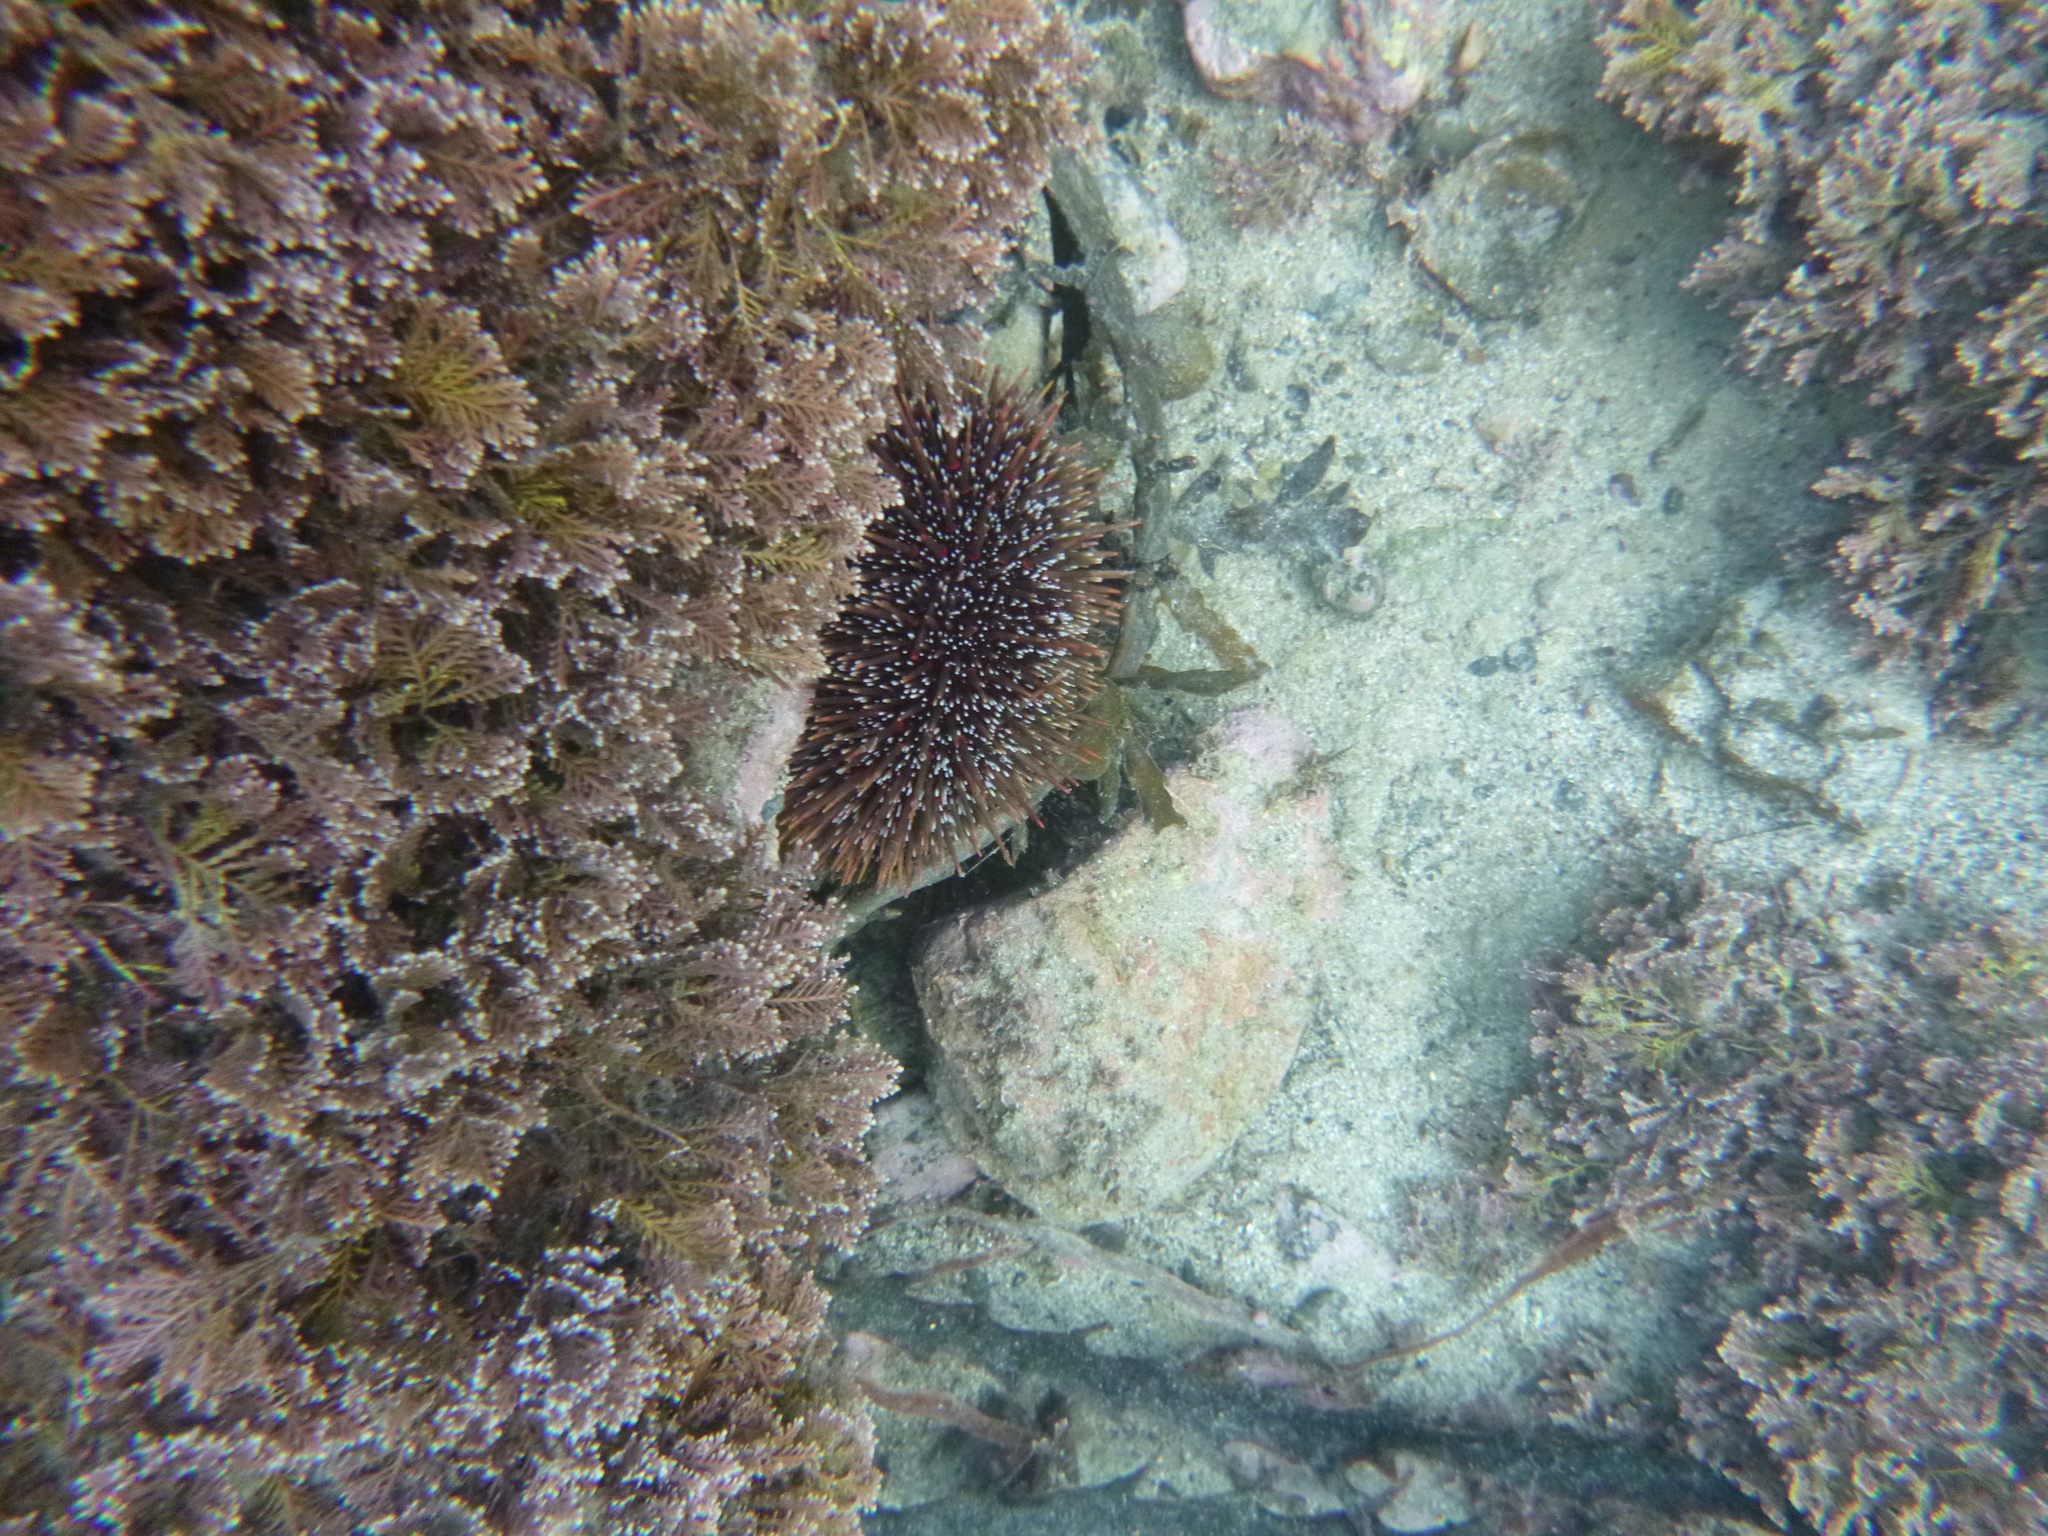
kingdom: Animalia
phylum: Echinodermata
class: Echinoidea
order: Camarodonta
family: Echinometridae
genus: Evechinus
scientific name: Evechinus chloroticus
